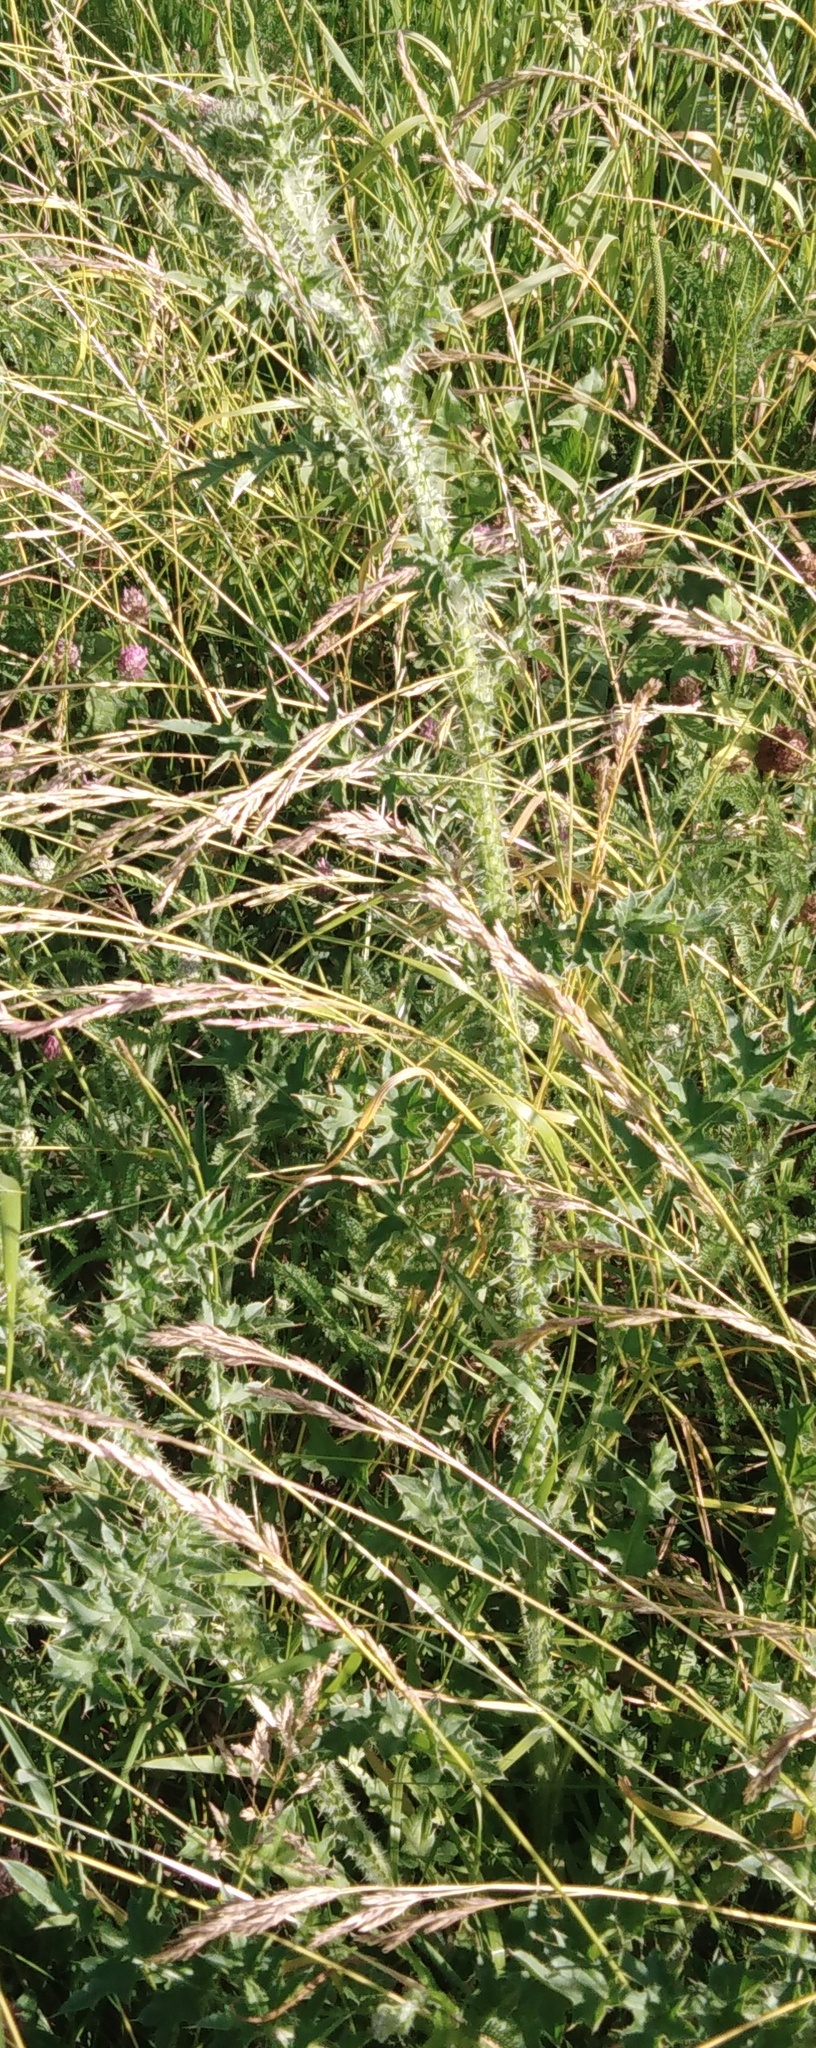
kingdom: Plantae
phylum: Tracheophyta
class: Magnoliopsida
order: Asterales
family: Asteraceae
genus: Carduus
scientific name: Carduus crispus
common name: Welted thistle
